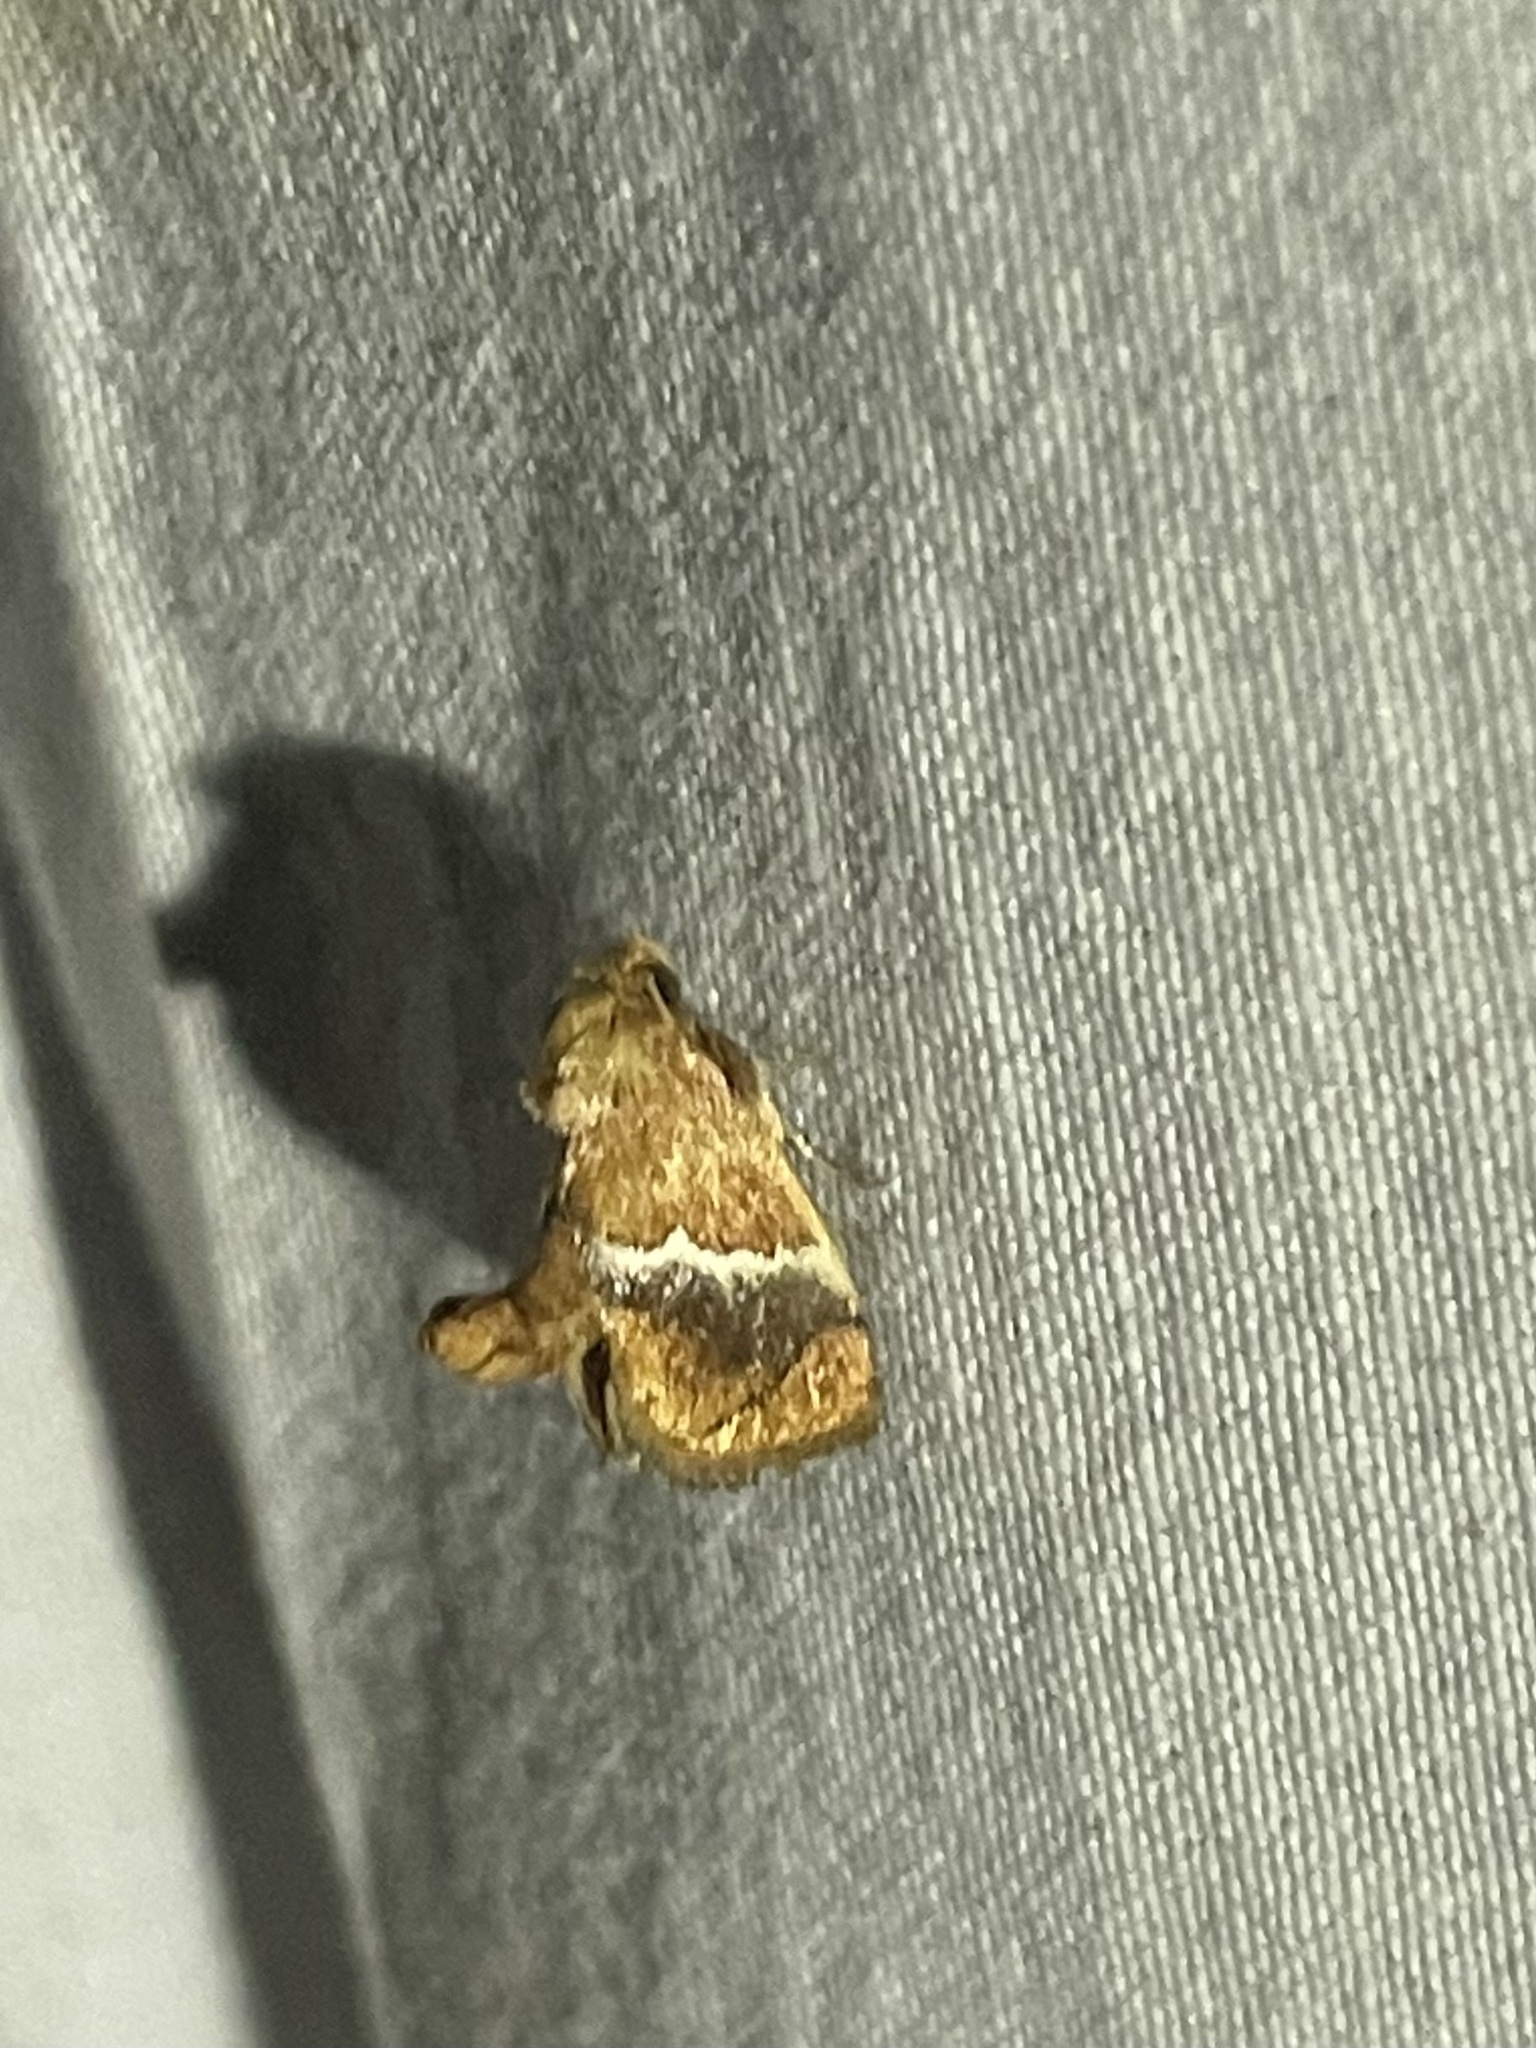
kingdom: Animalia
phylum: Arthropoda
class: Insecta
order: Lepidoptera
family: Limacodidae
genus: Lithacodes
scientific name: Lithacodes fasciola
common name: Yellow-shouldered slug moth
